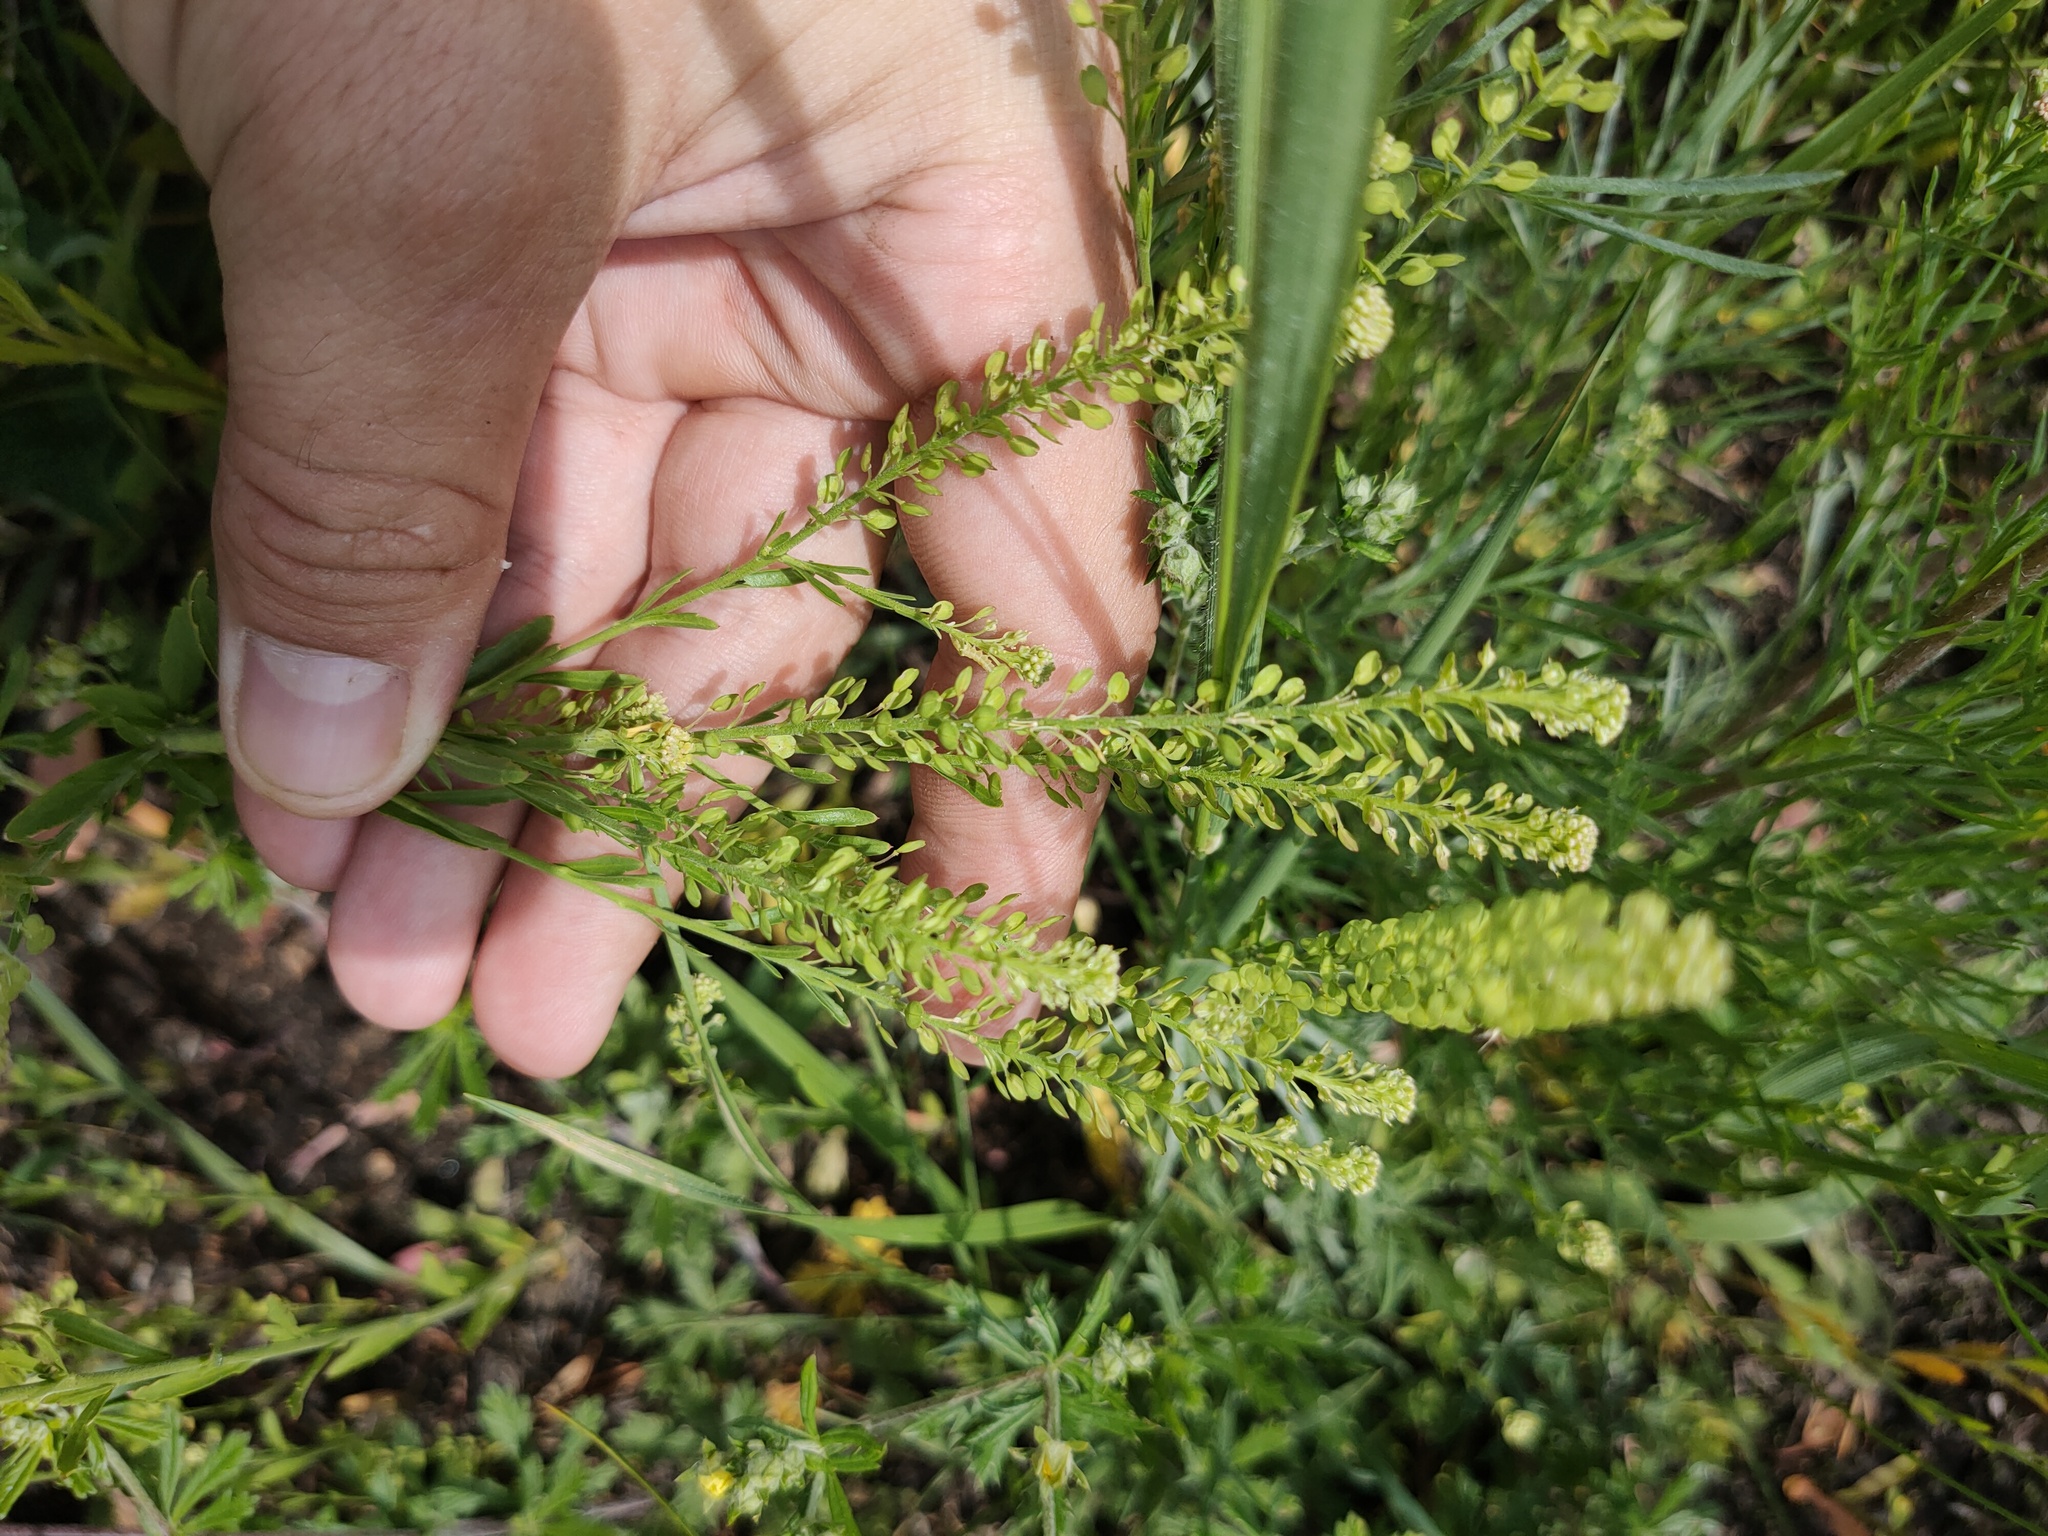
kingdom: Plantae
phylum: Tracheophyta
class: Magnoliopsida
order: Brassicales
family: Brassicaceae
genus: Lepidium
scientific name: Lepidium densiflorum
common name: Miner's pepperwort
